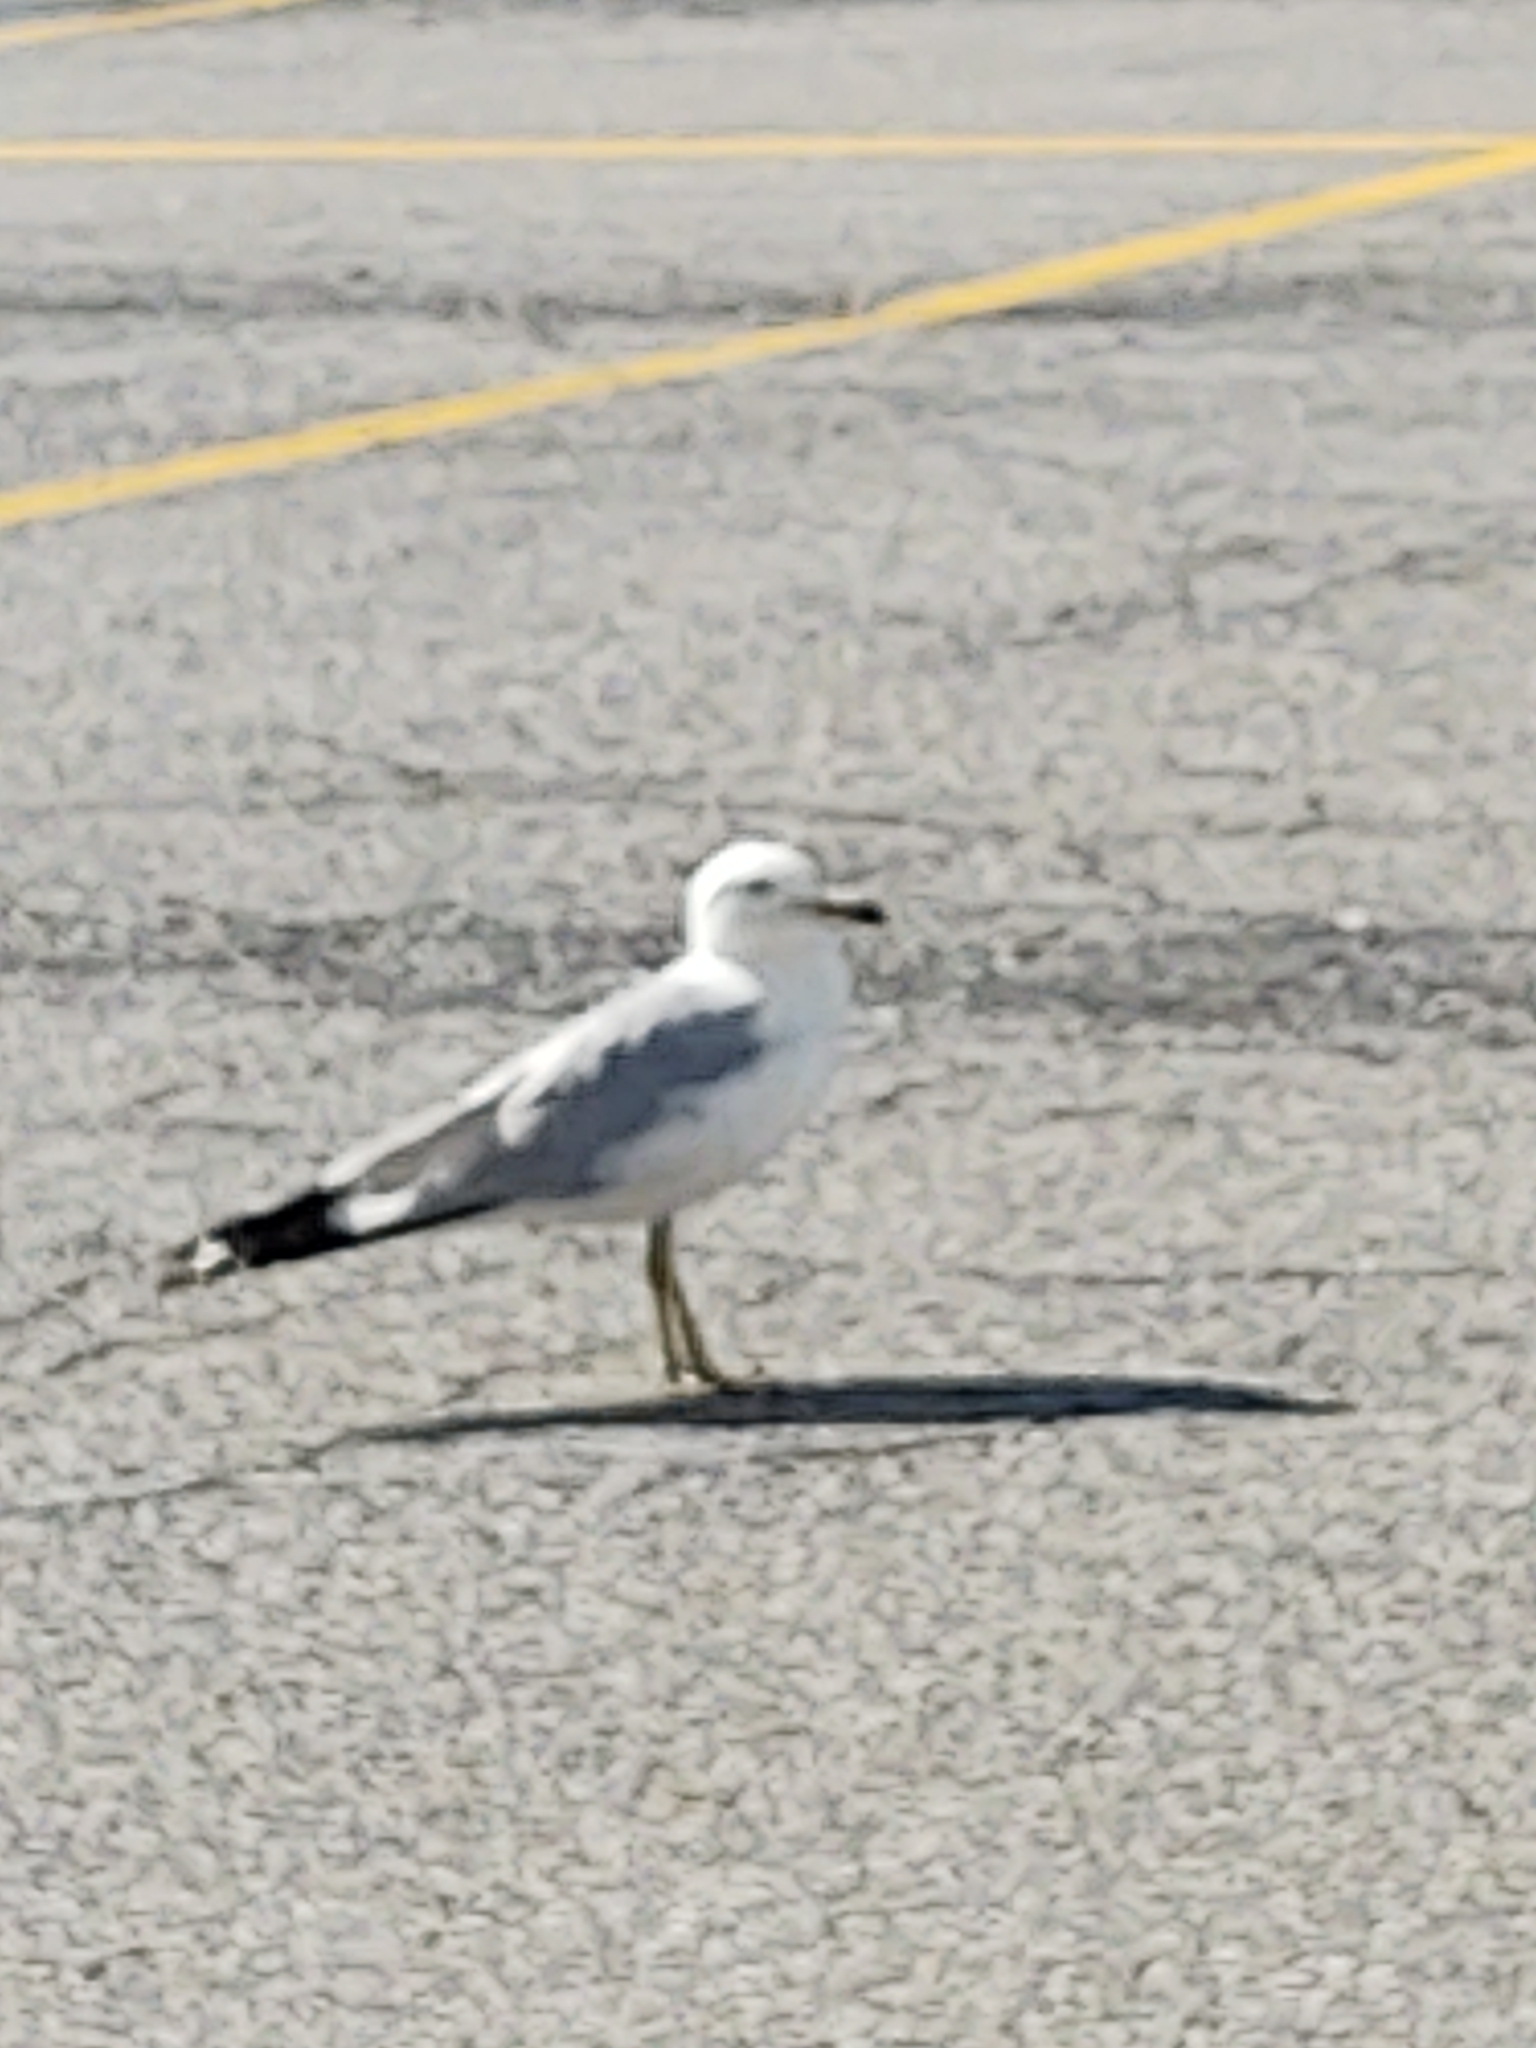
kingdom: Animalia
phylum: Chordata
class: Aves
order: Charadriiformes
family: Laridae
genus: Larus
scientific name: Larus delawarensis
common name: Ring-billed gull
